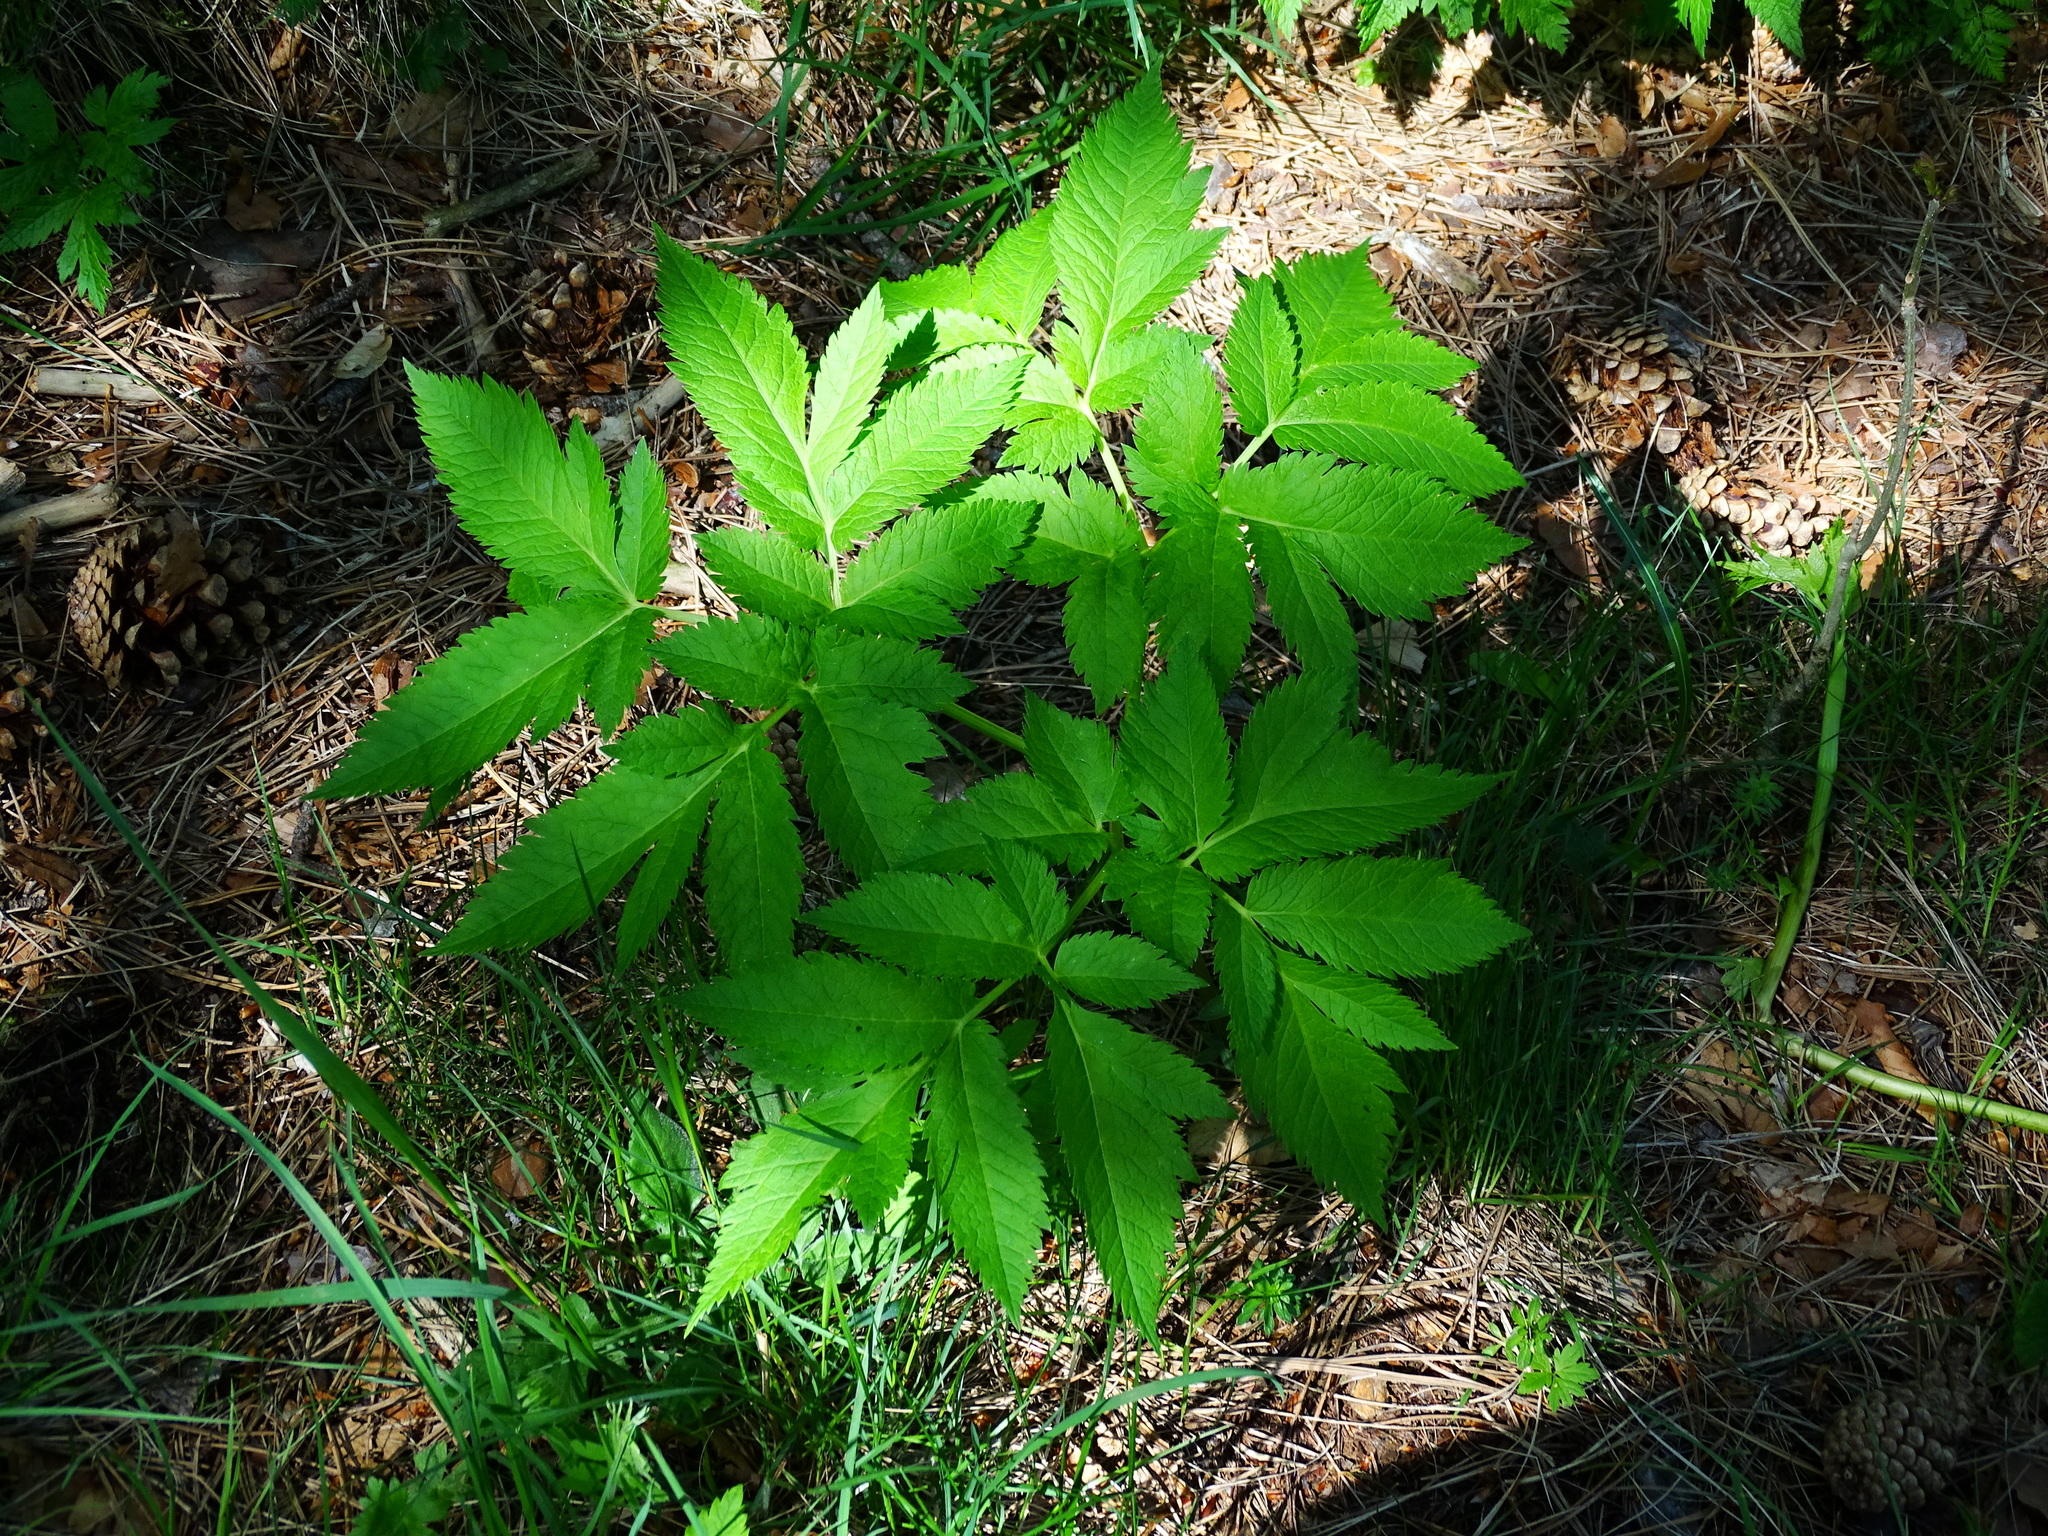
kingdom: Plantae
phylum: Tracheophyta
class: Magnoliopsida
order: Apiales
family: Apiaceae
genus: Physospermum
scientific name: Physospermum verticillatum
